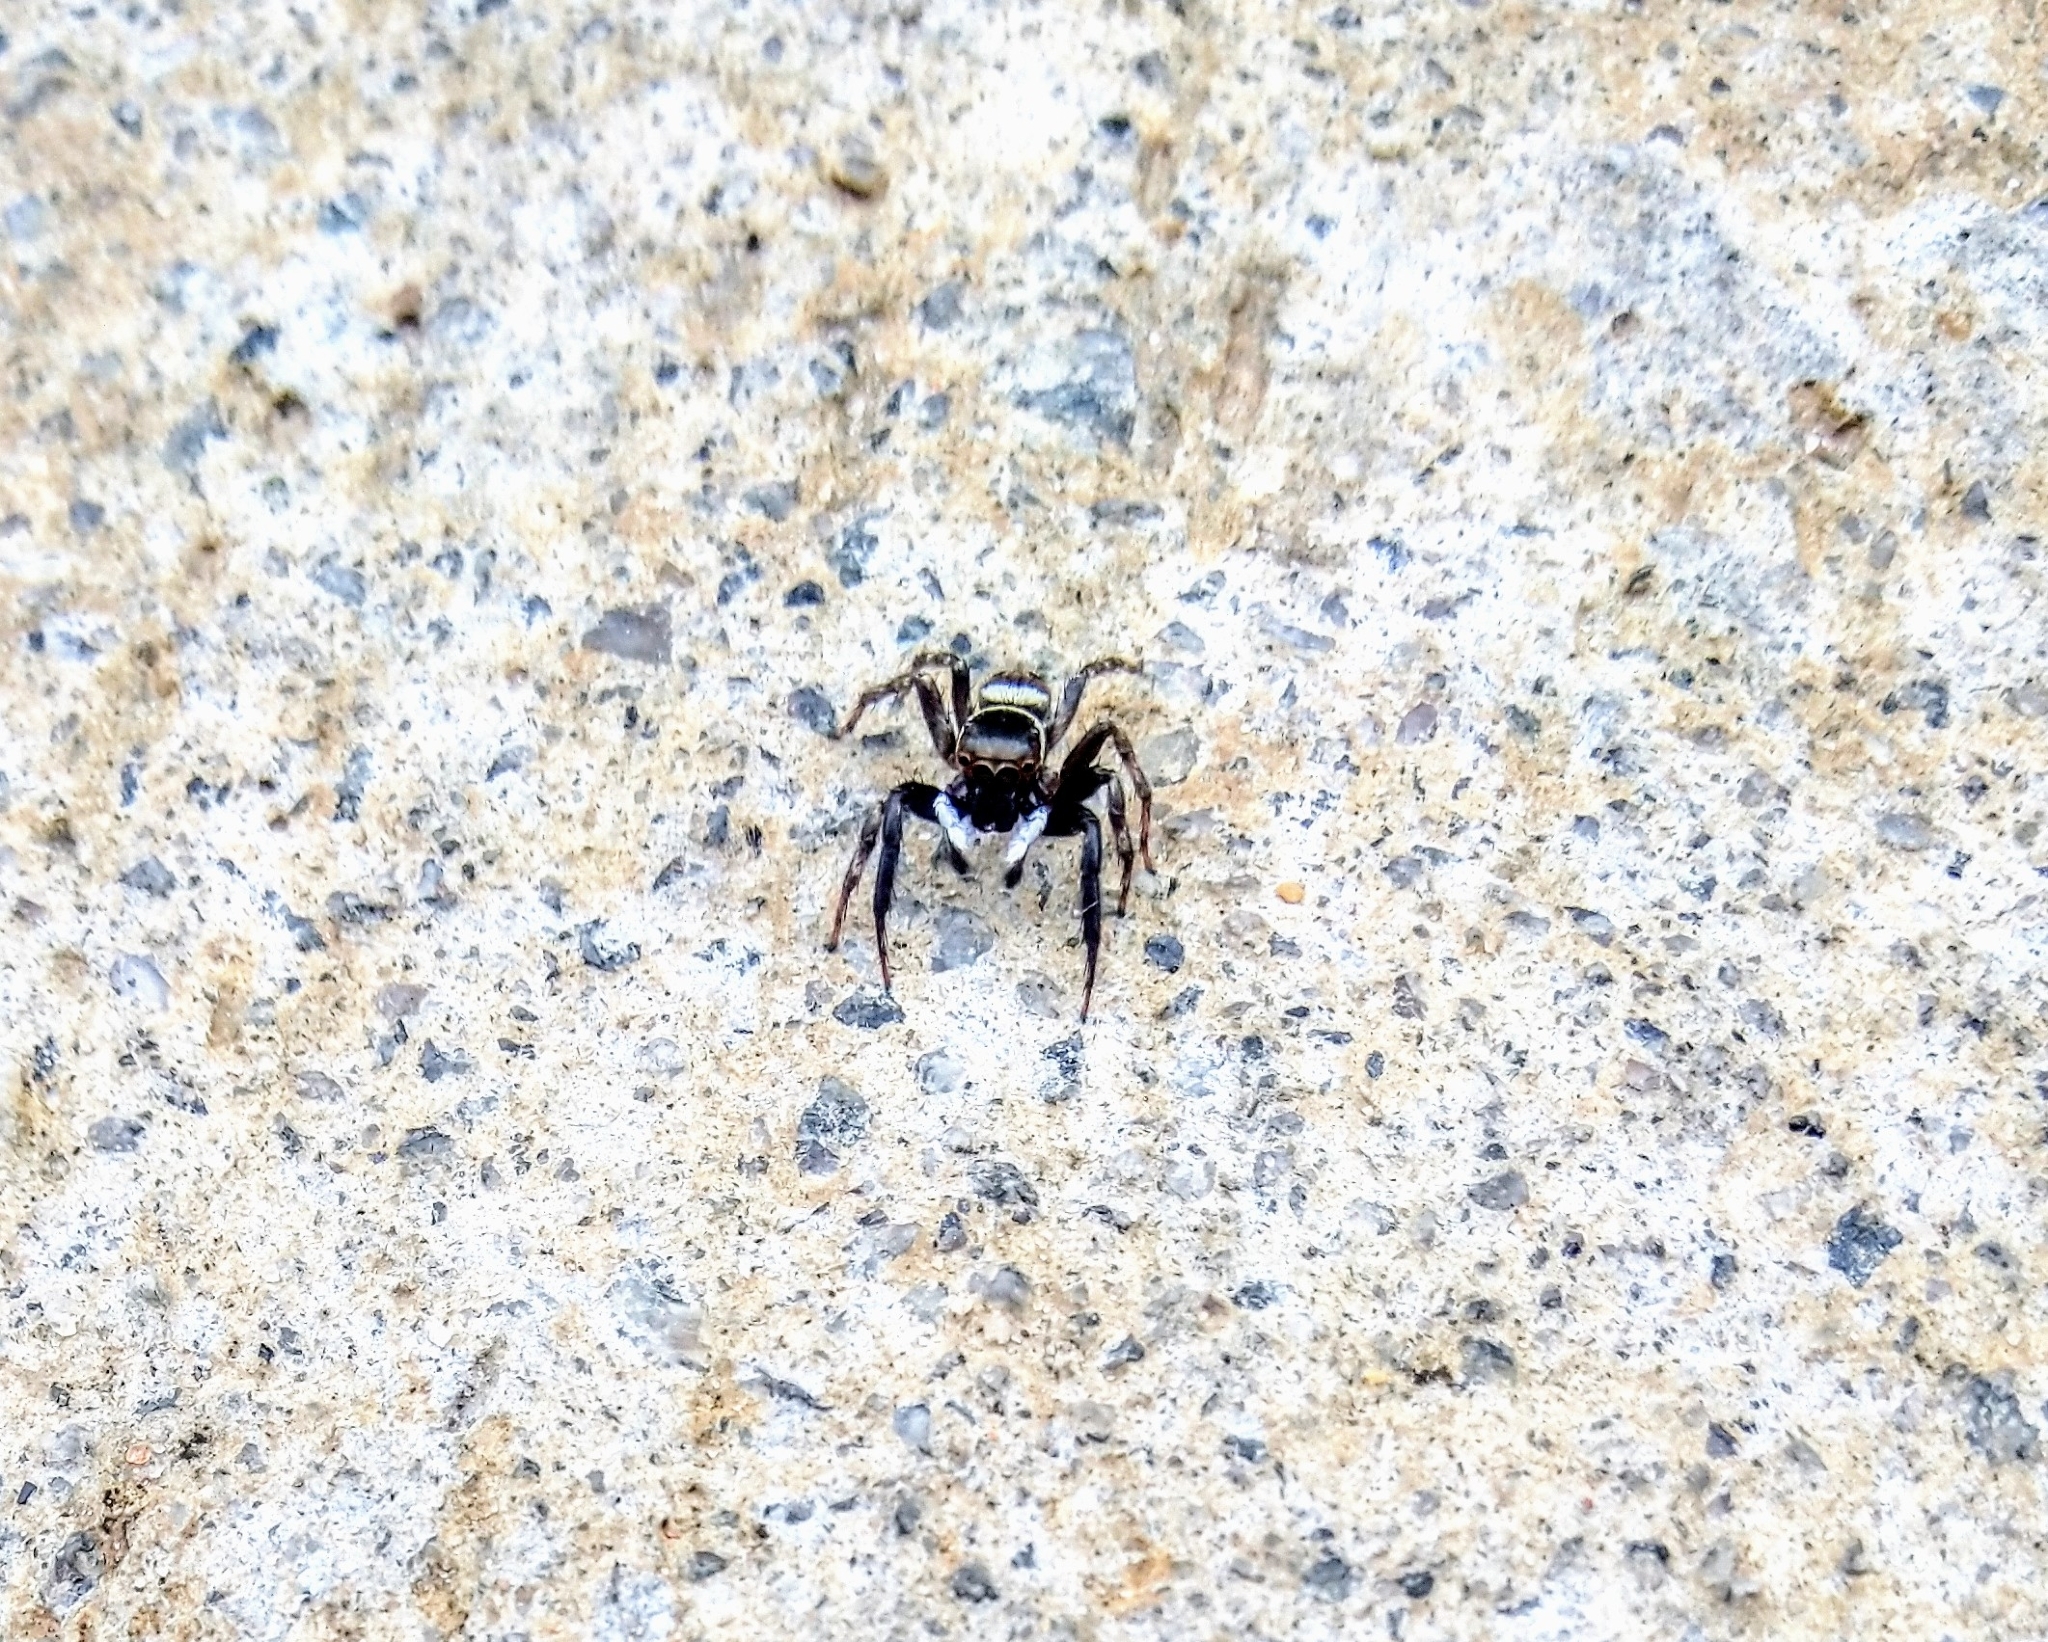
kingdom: Animalia
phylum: Arthropoda
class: Arachnida
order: Araneae
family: Salticidae
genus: Hasarius
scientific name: Hasarius adansoni
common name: Jumping spider
